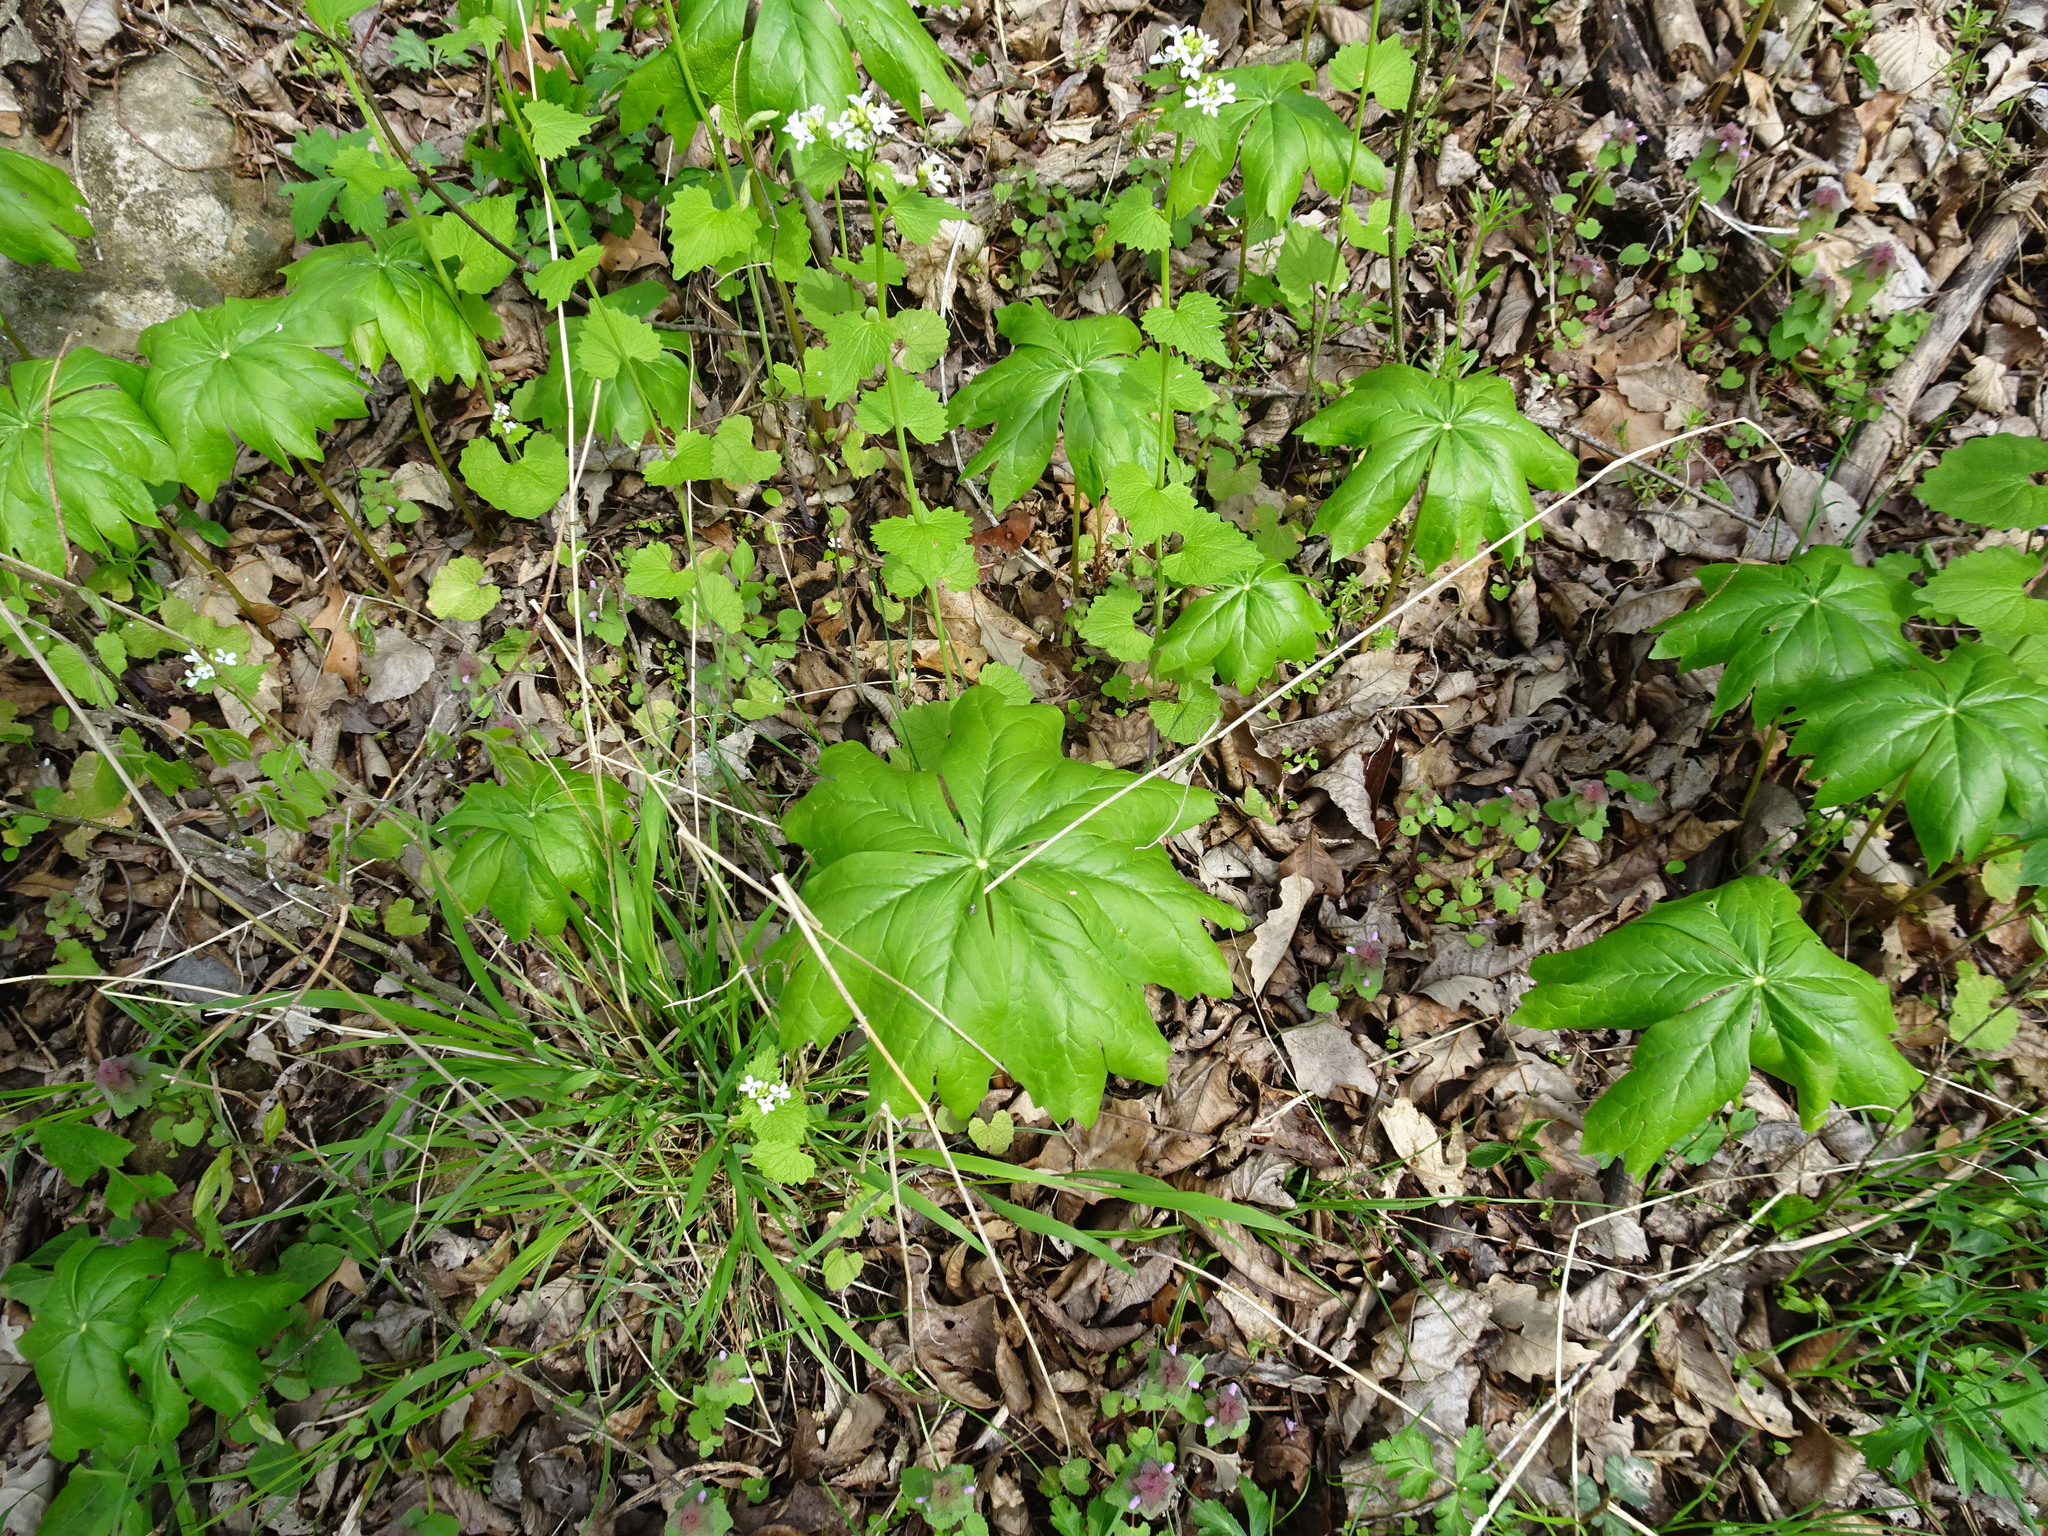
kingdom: Plantae
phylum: Tracheophyta
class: Magnoliopsida
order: Ranunculales
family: Berberidaceae
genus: Podophyllum
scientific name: Podophyllum peltatum
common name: Wild mandrake
